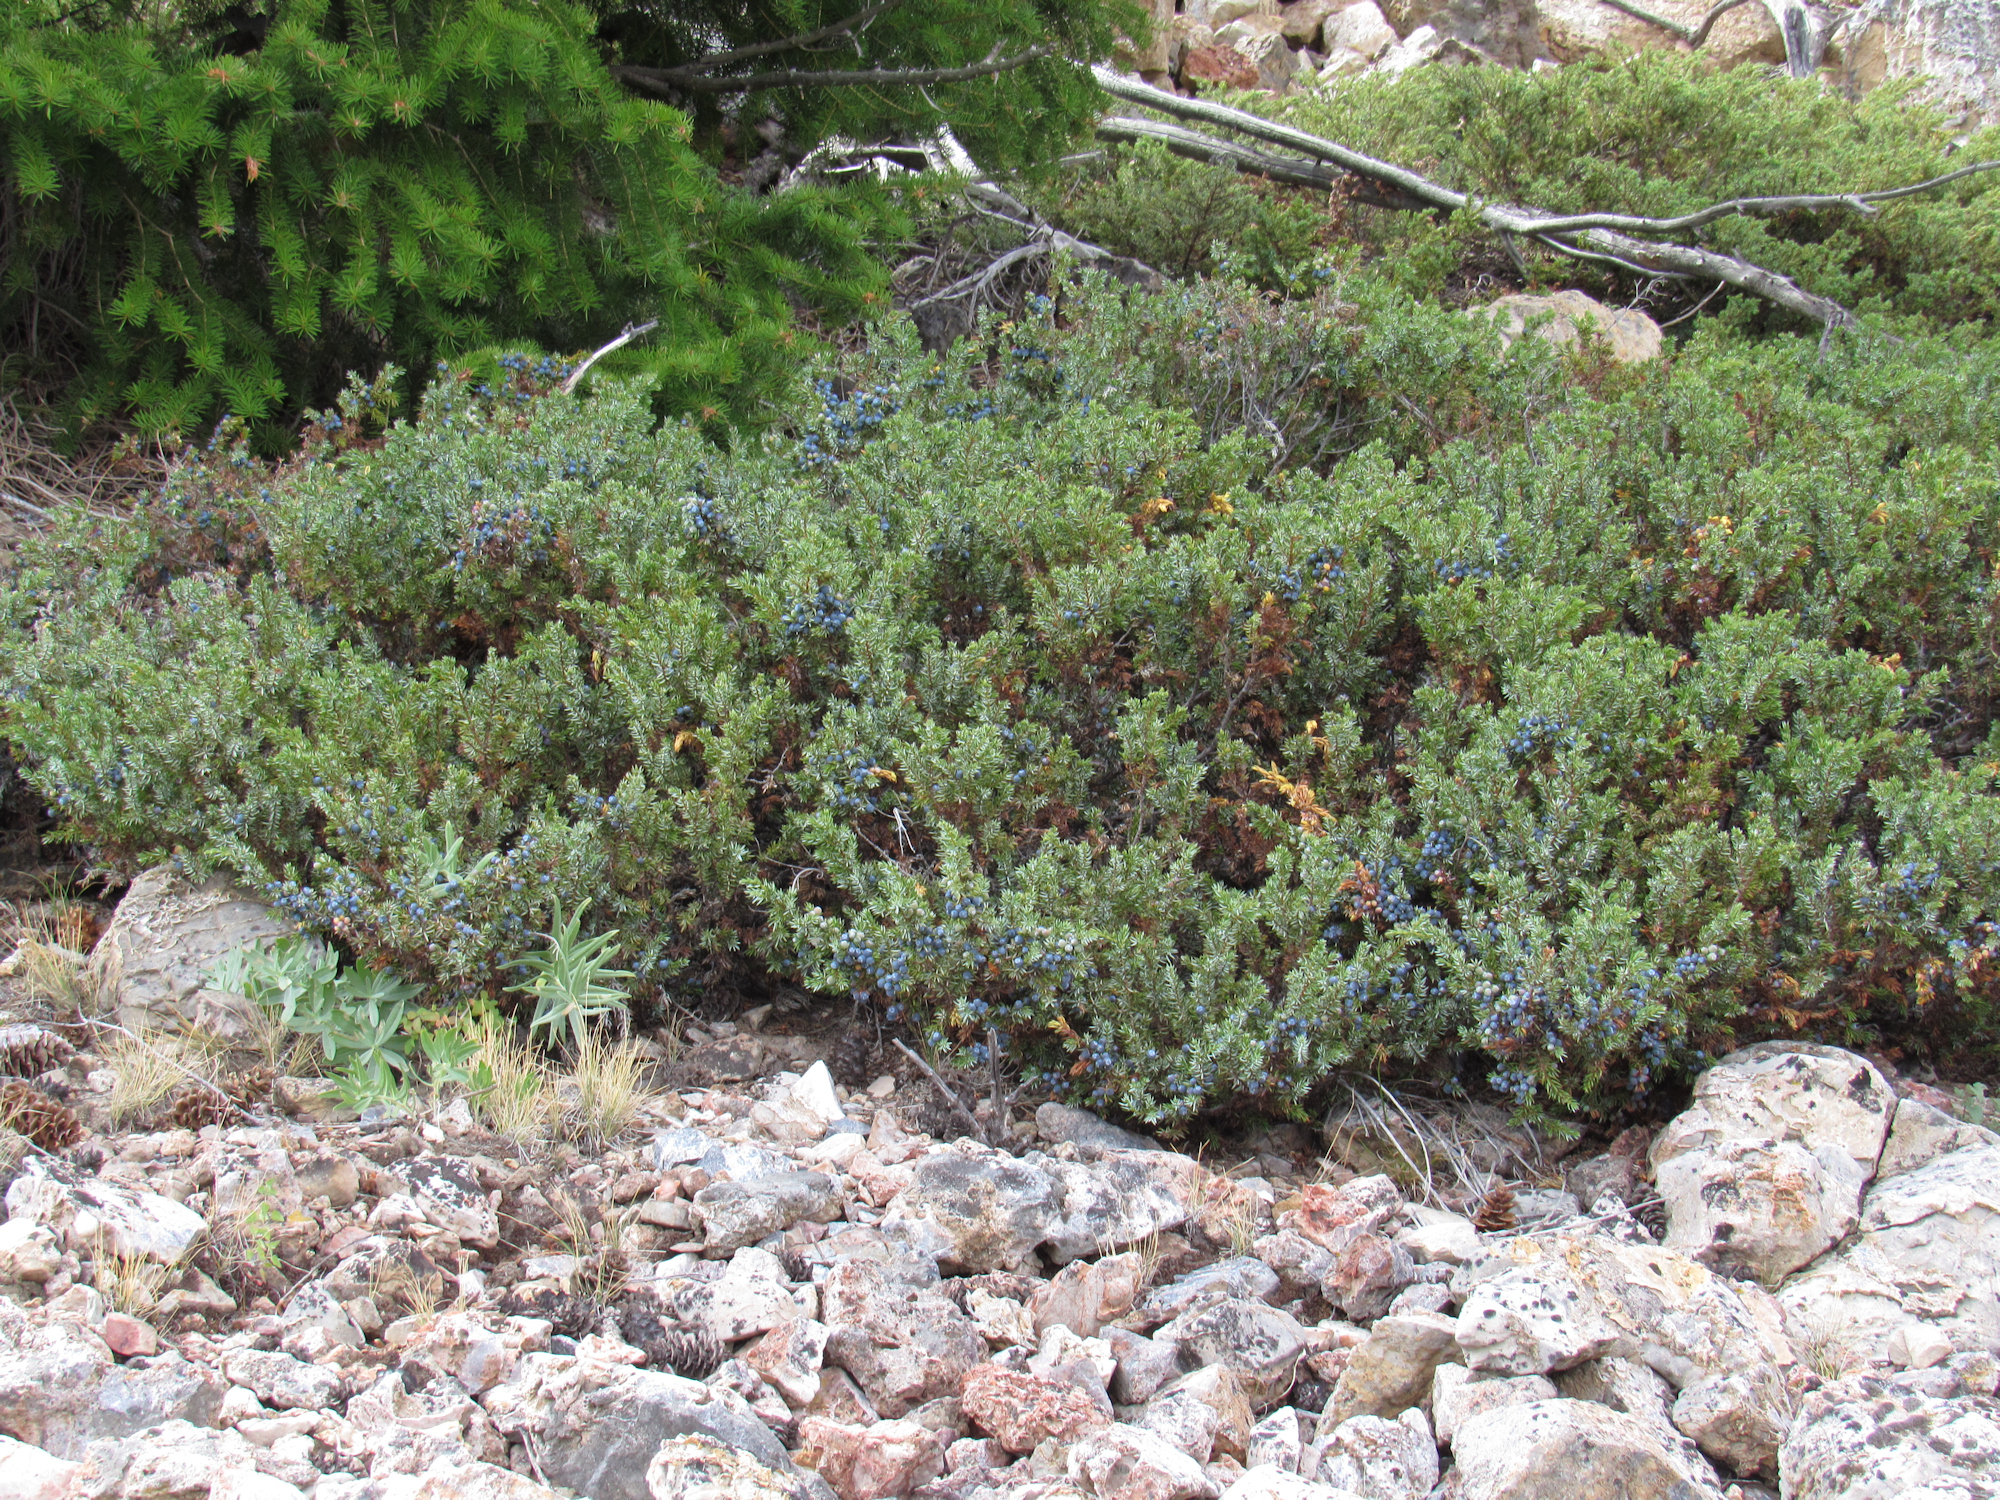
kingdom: Plantae
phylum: Tracheophyta
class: Pinopsida
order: Pinales
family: Cupressaceae
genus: Juniperus
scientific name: Juniperus communis
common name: Common juniper
